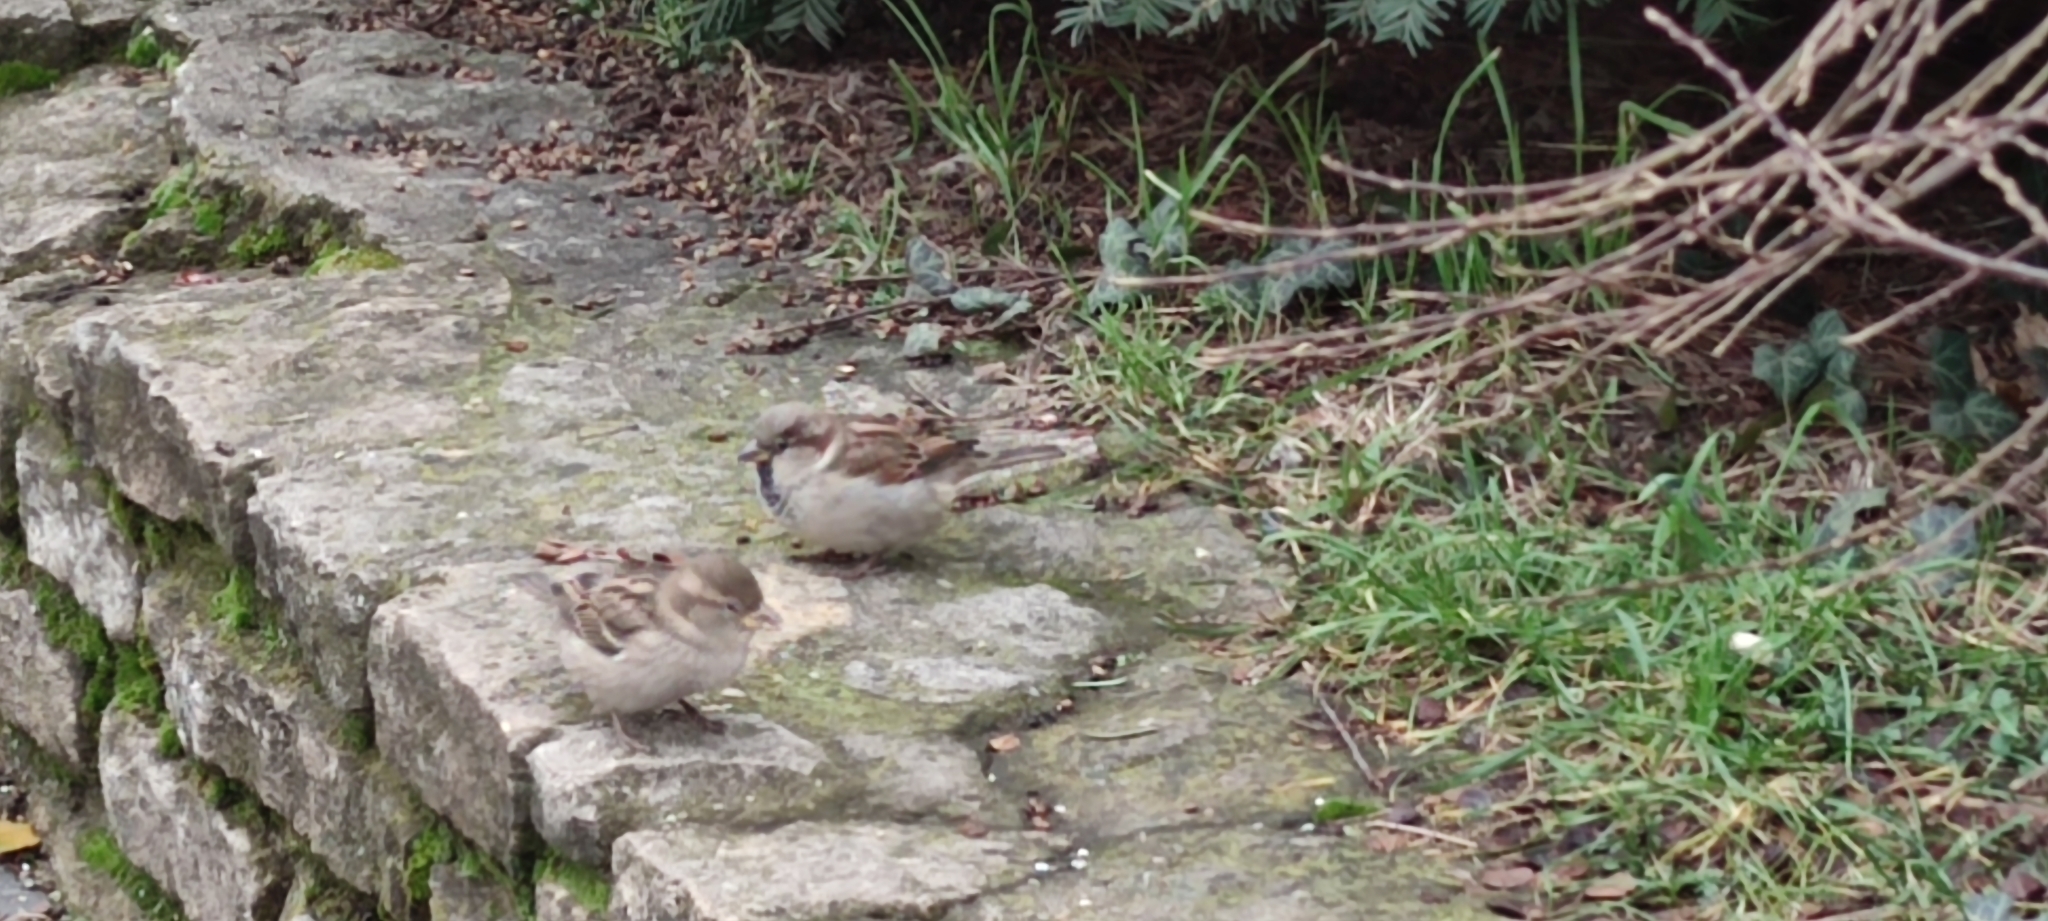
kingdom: Animalia
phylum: Chordata
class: Aves
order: Passeriformes
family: Passeridae
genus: Passer
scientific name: Passer domesticus
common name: House sparrow
